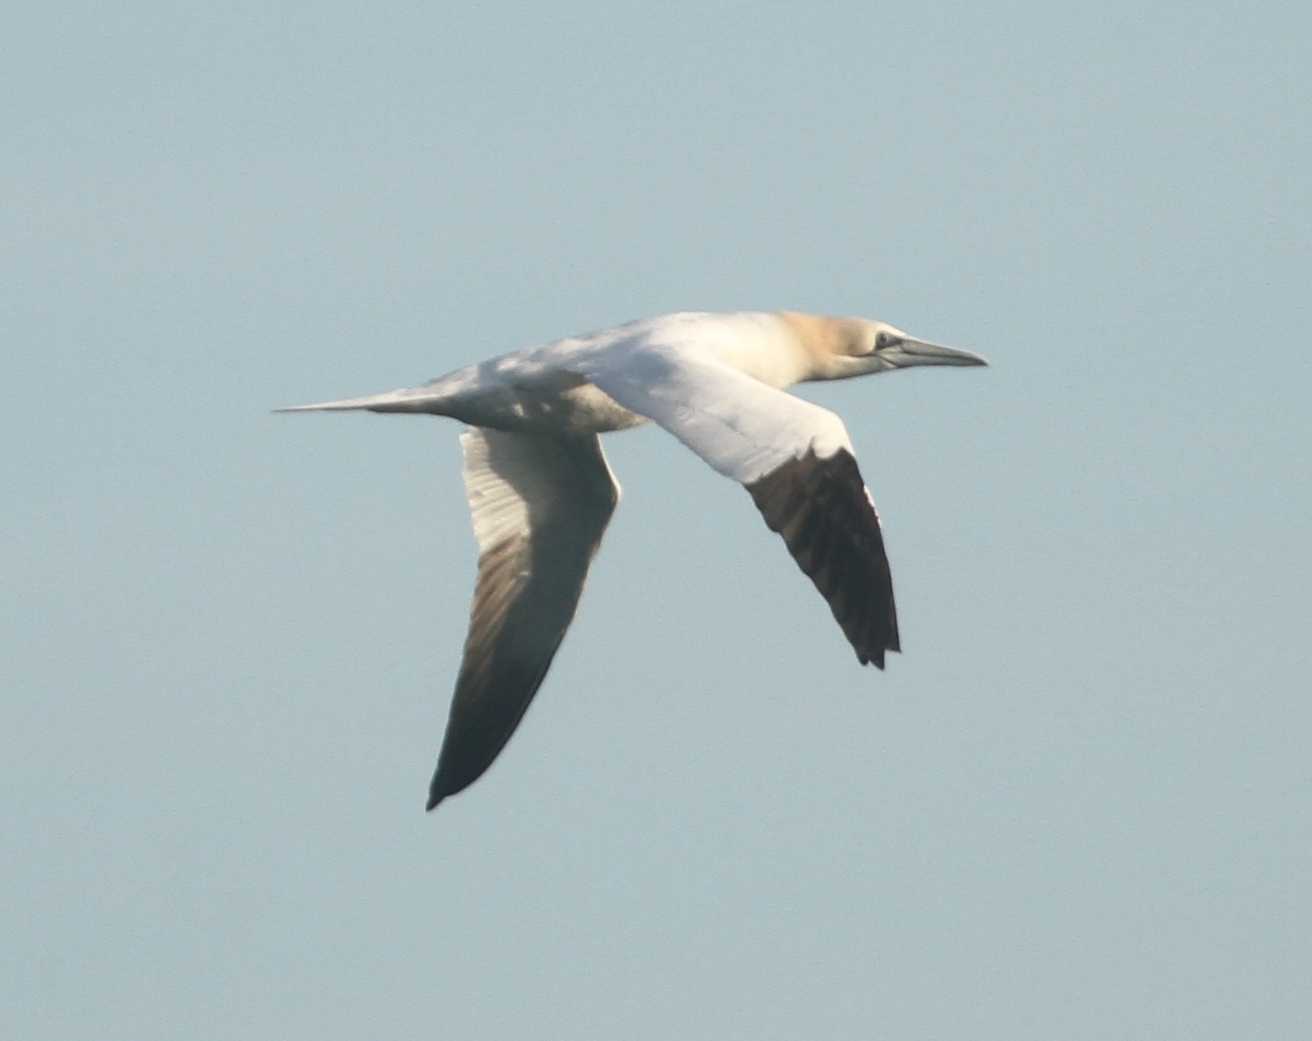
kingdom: Animalia
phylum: Chordata
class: Aves
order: Suliformes
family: Sulidae
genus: Morus
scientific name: Morus bassanus
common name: Northern gannet
